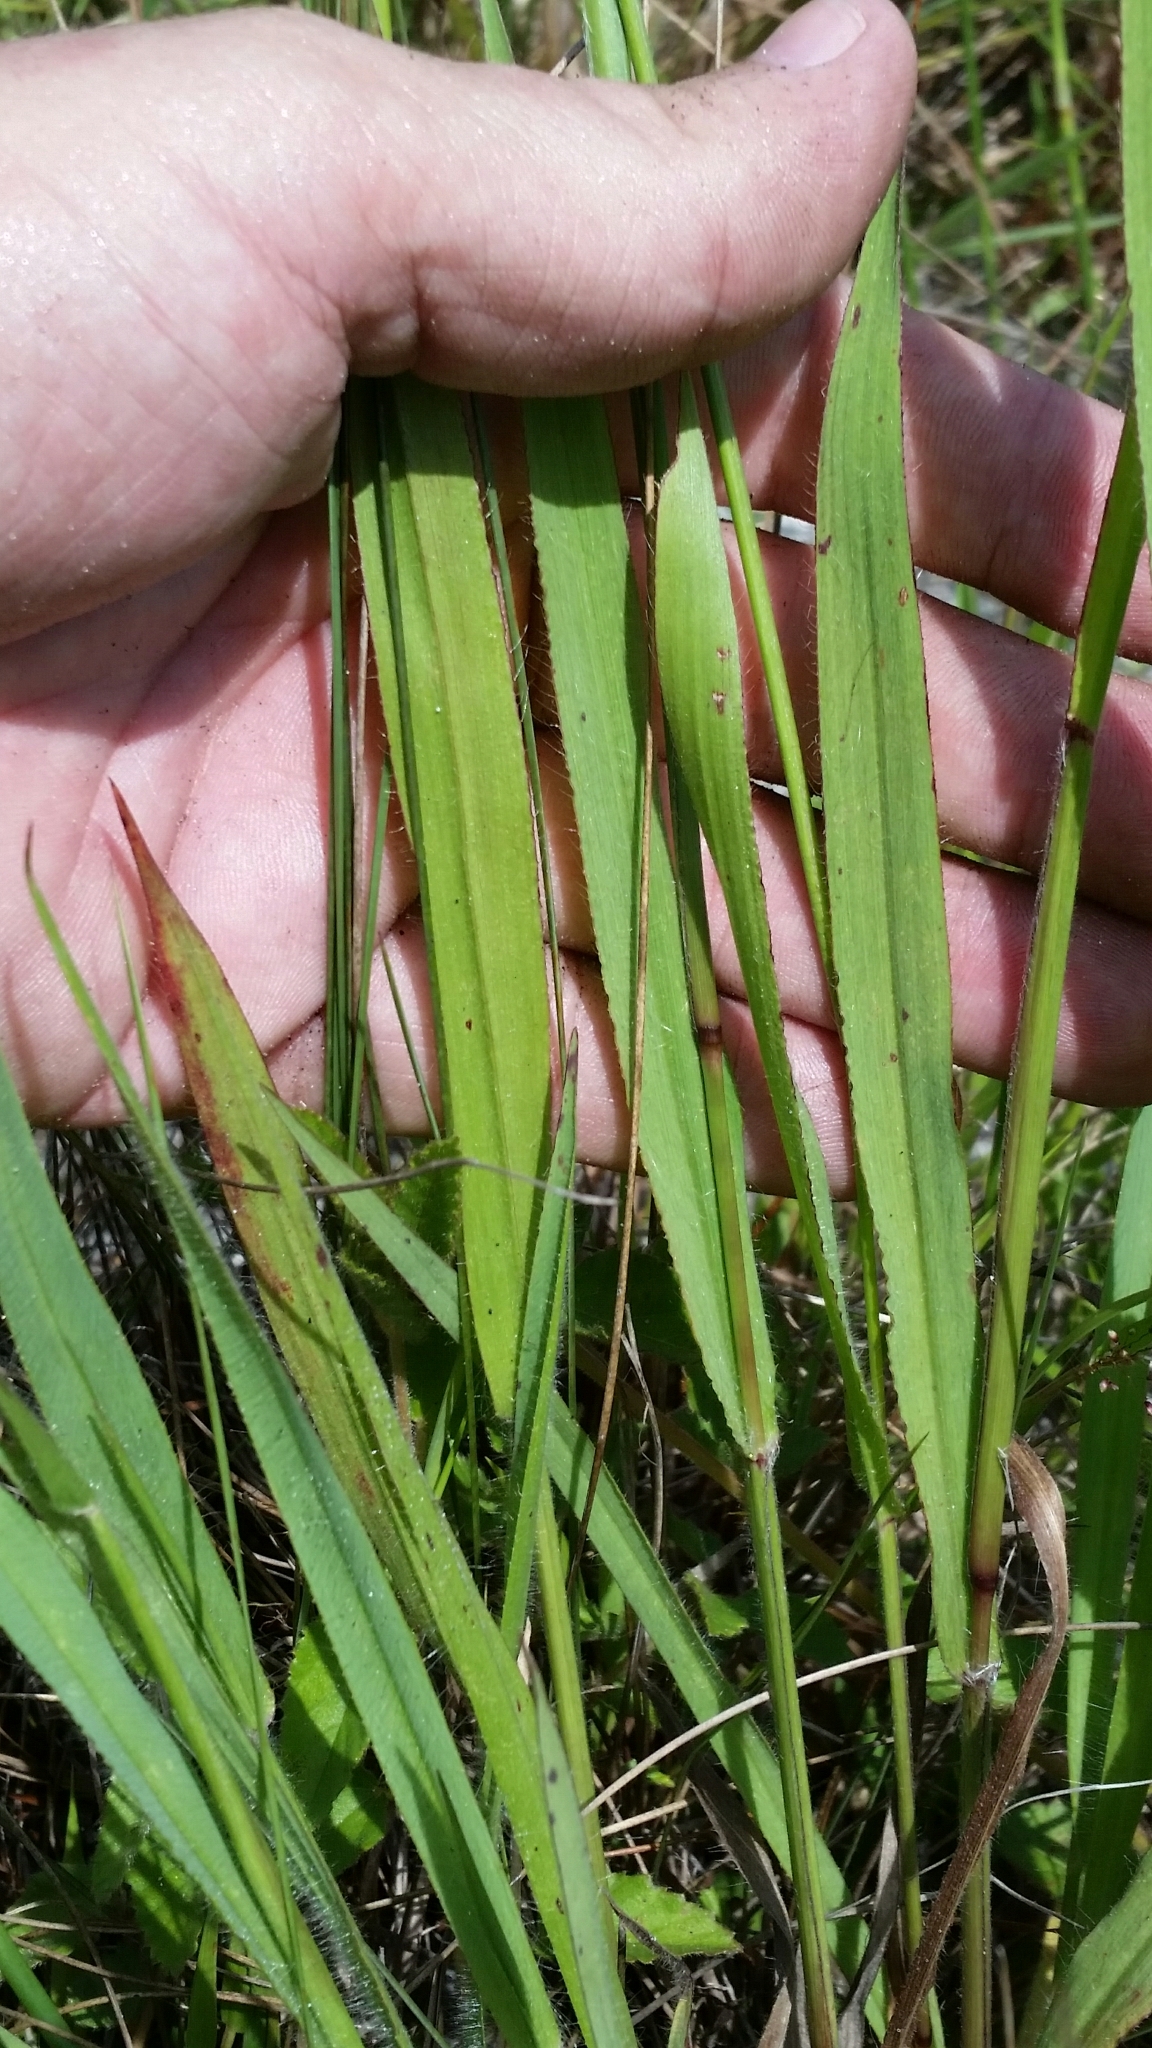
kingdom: Plantae
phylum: Tracheophyta
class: Liliopsida
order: Poales
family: Poaceae
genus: Paspalum
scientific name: Paspalum setaceum
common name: Slender paspalum
